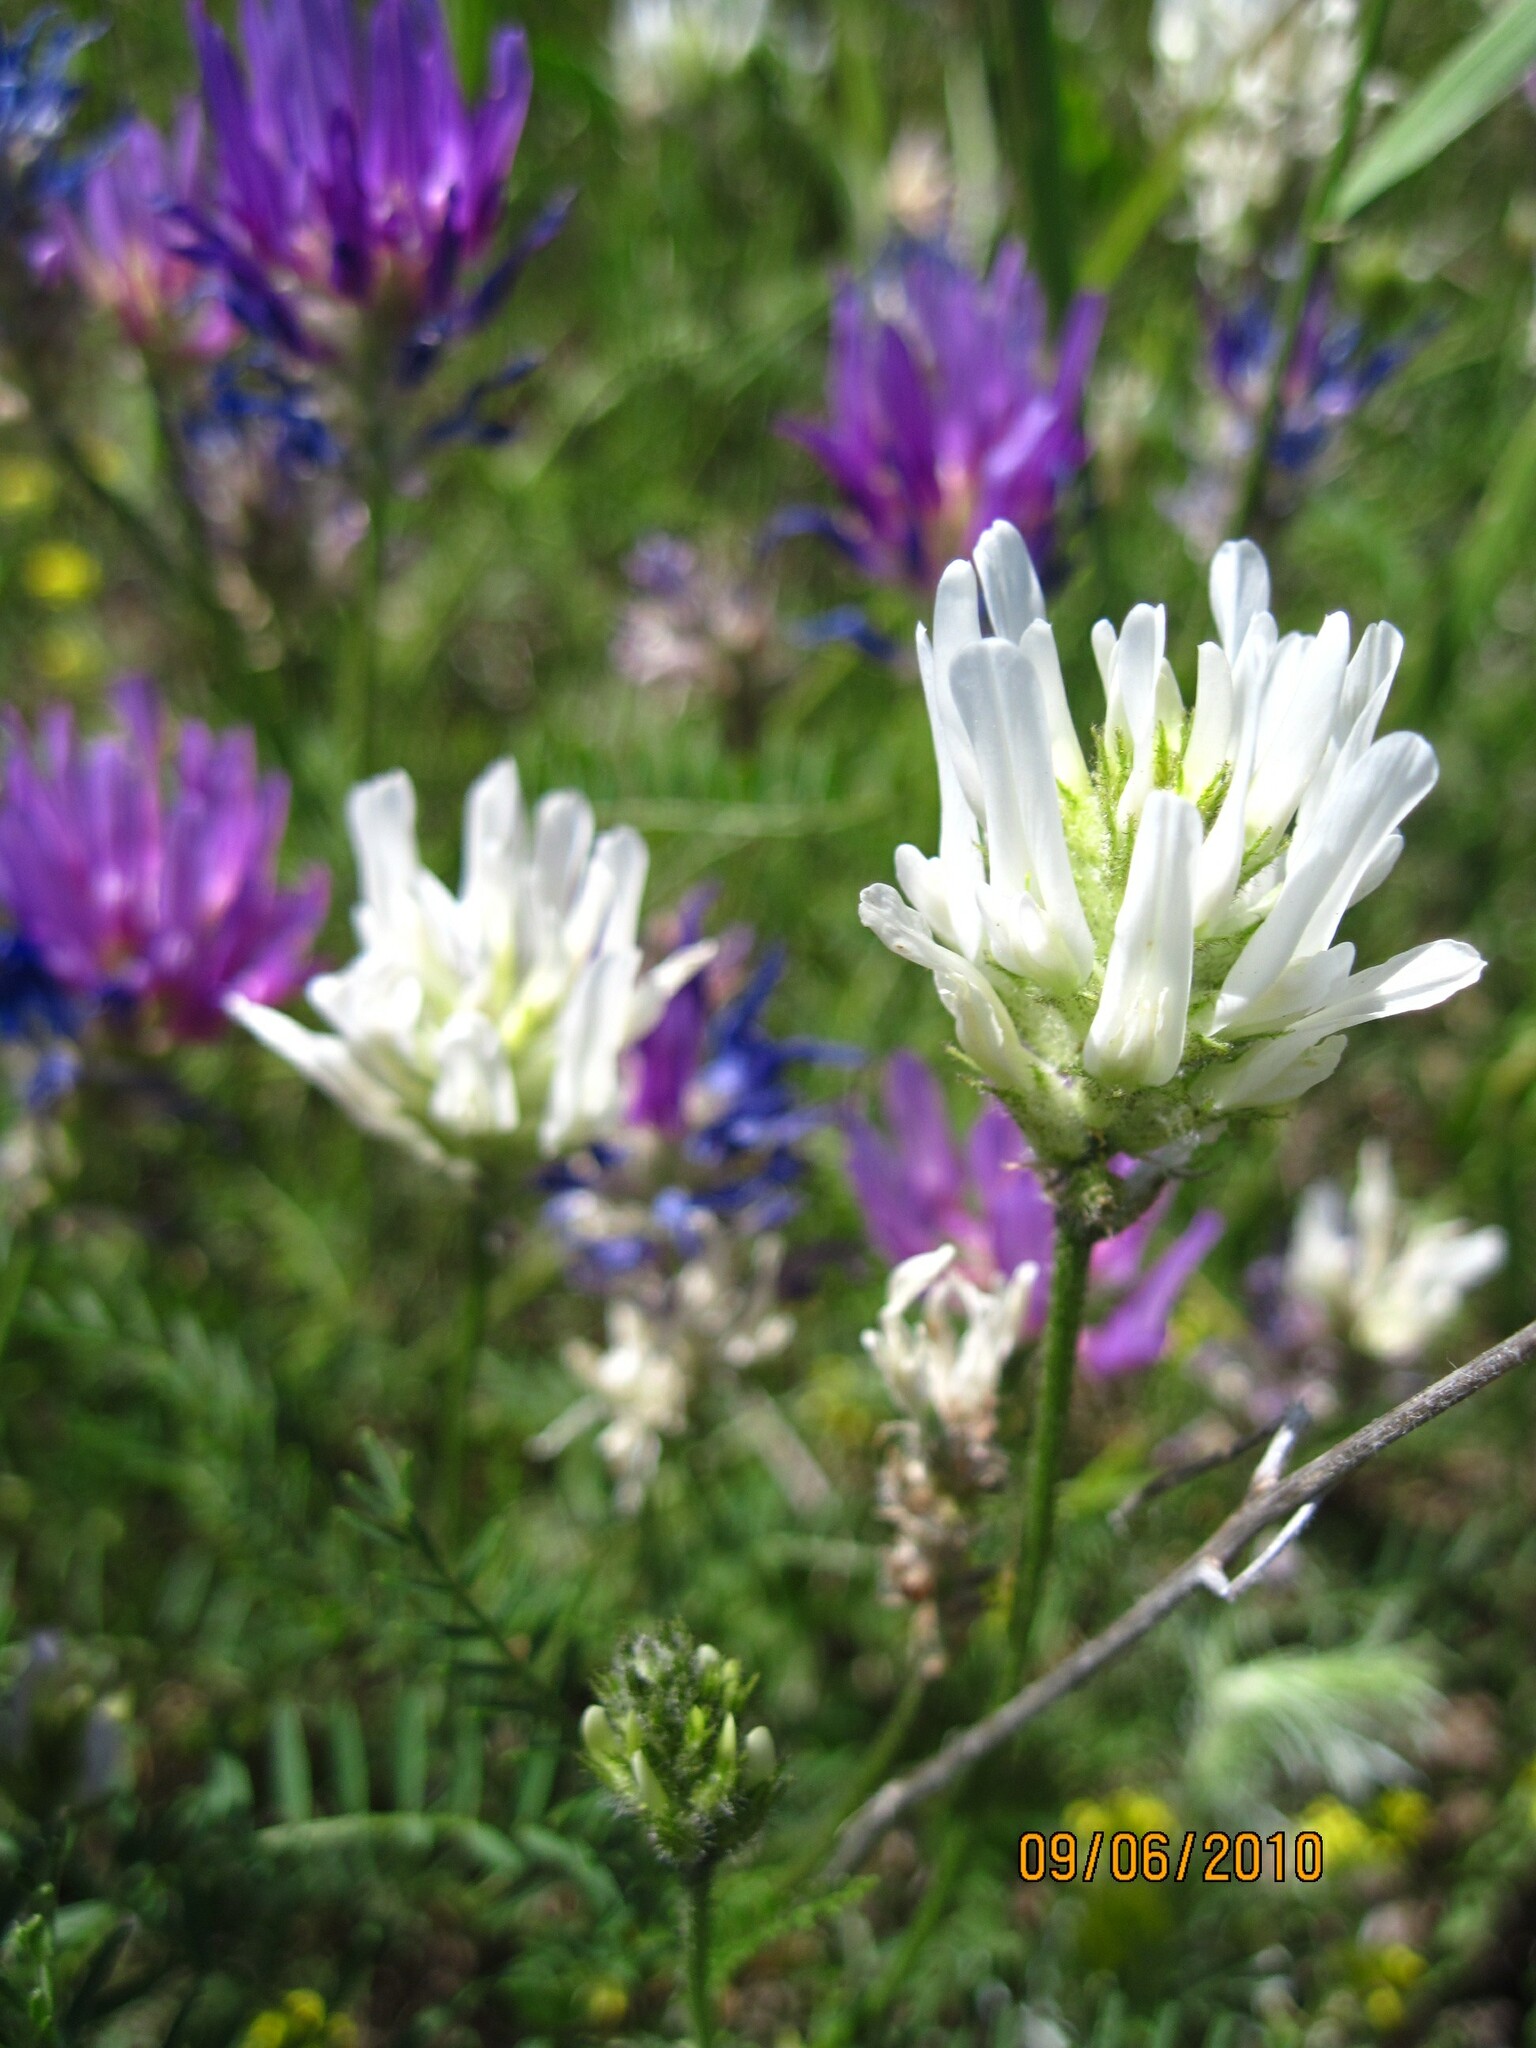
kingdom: Plantae
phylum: Tracheophyta
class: Magnoliopsida
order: Fabales
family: Fabaceae
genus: Astragalus
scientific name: Astragalus onobrychis
